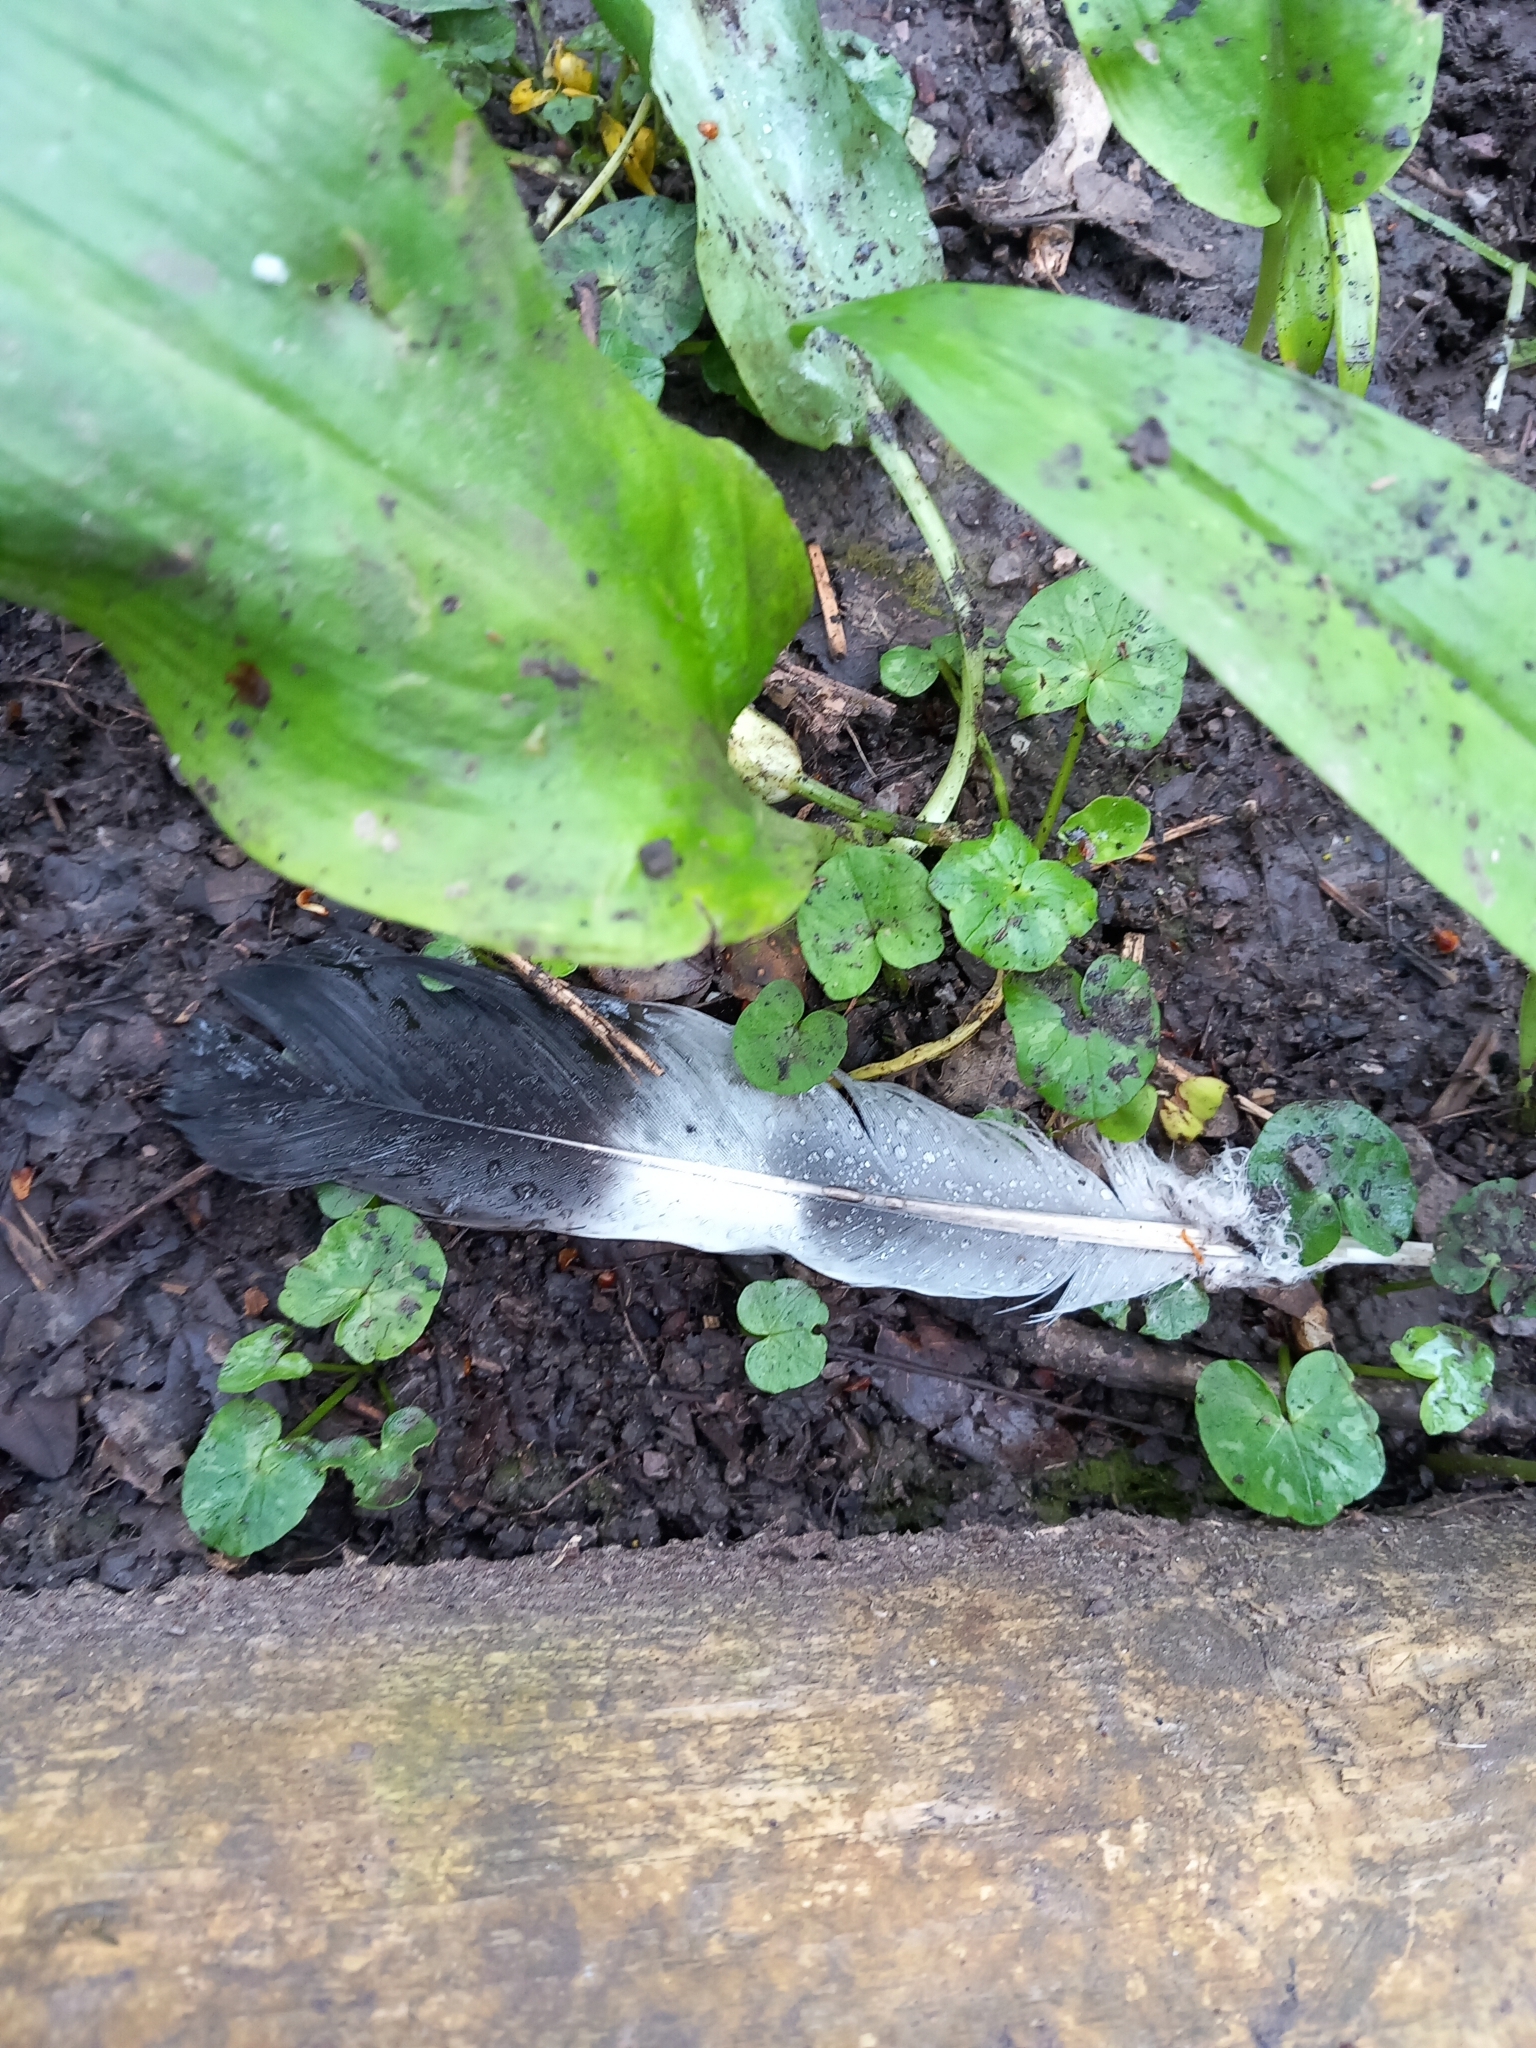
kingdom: Animalia
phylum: Chordata
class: Aves
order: Columbiformes
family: Columbidae
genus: Columba
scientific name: Columba palumbus
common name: Common wood pigeon
